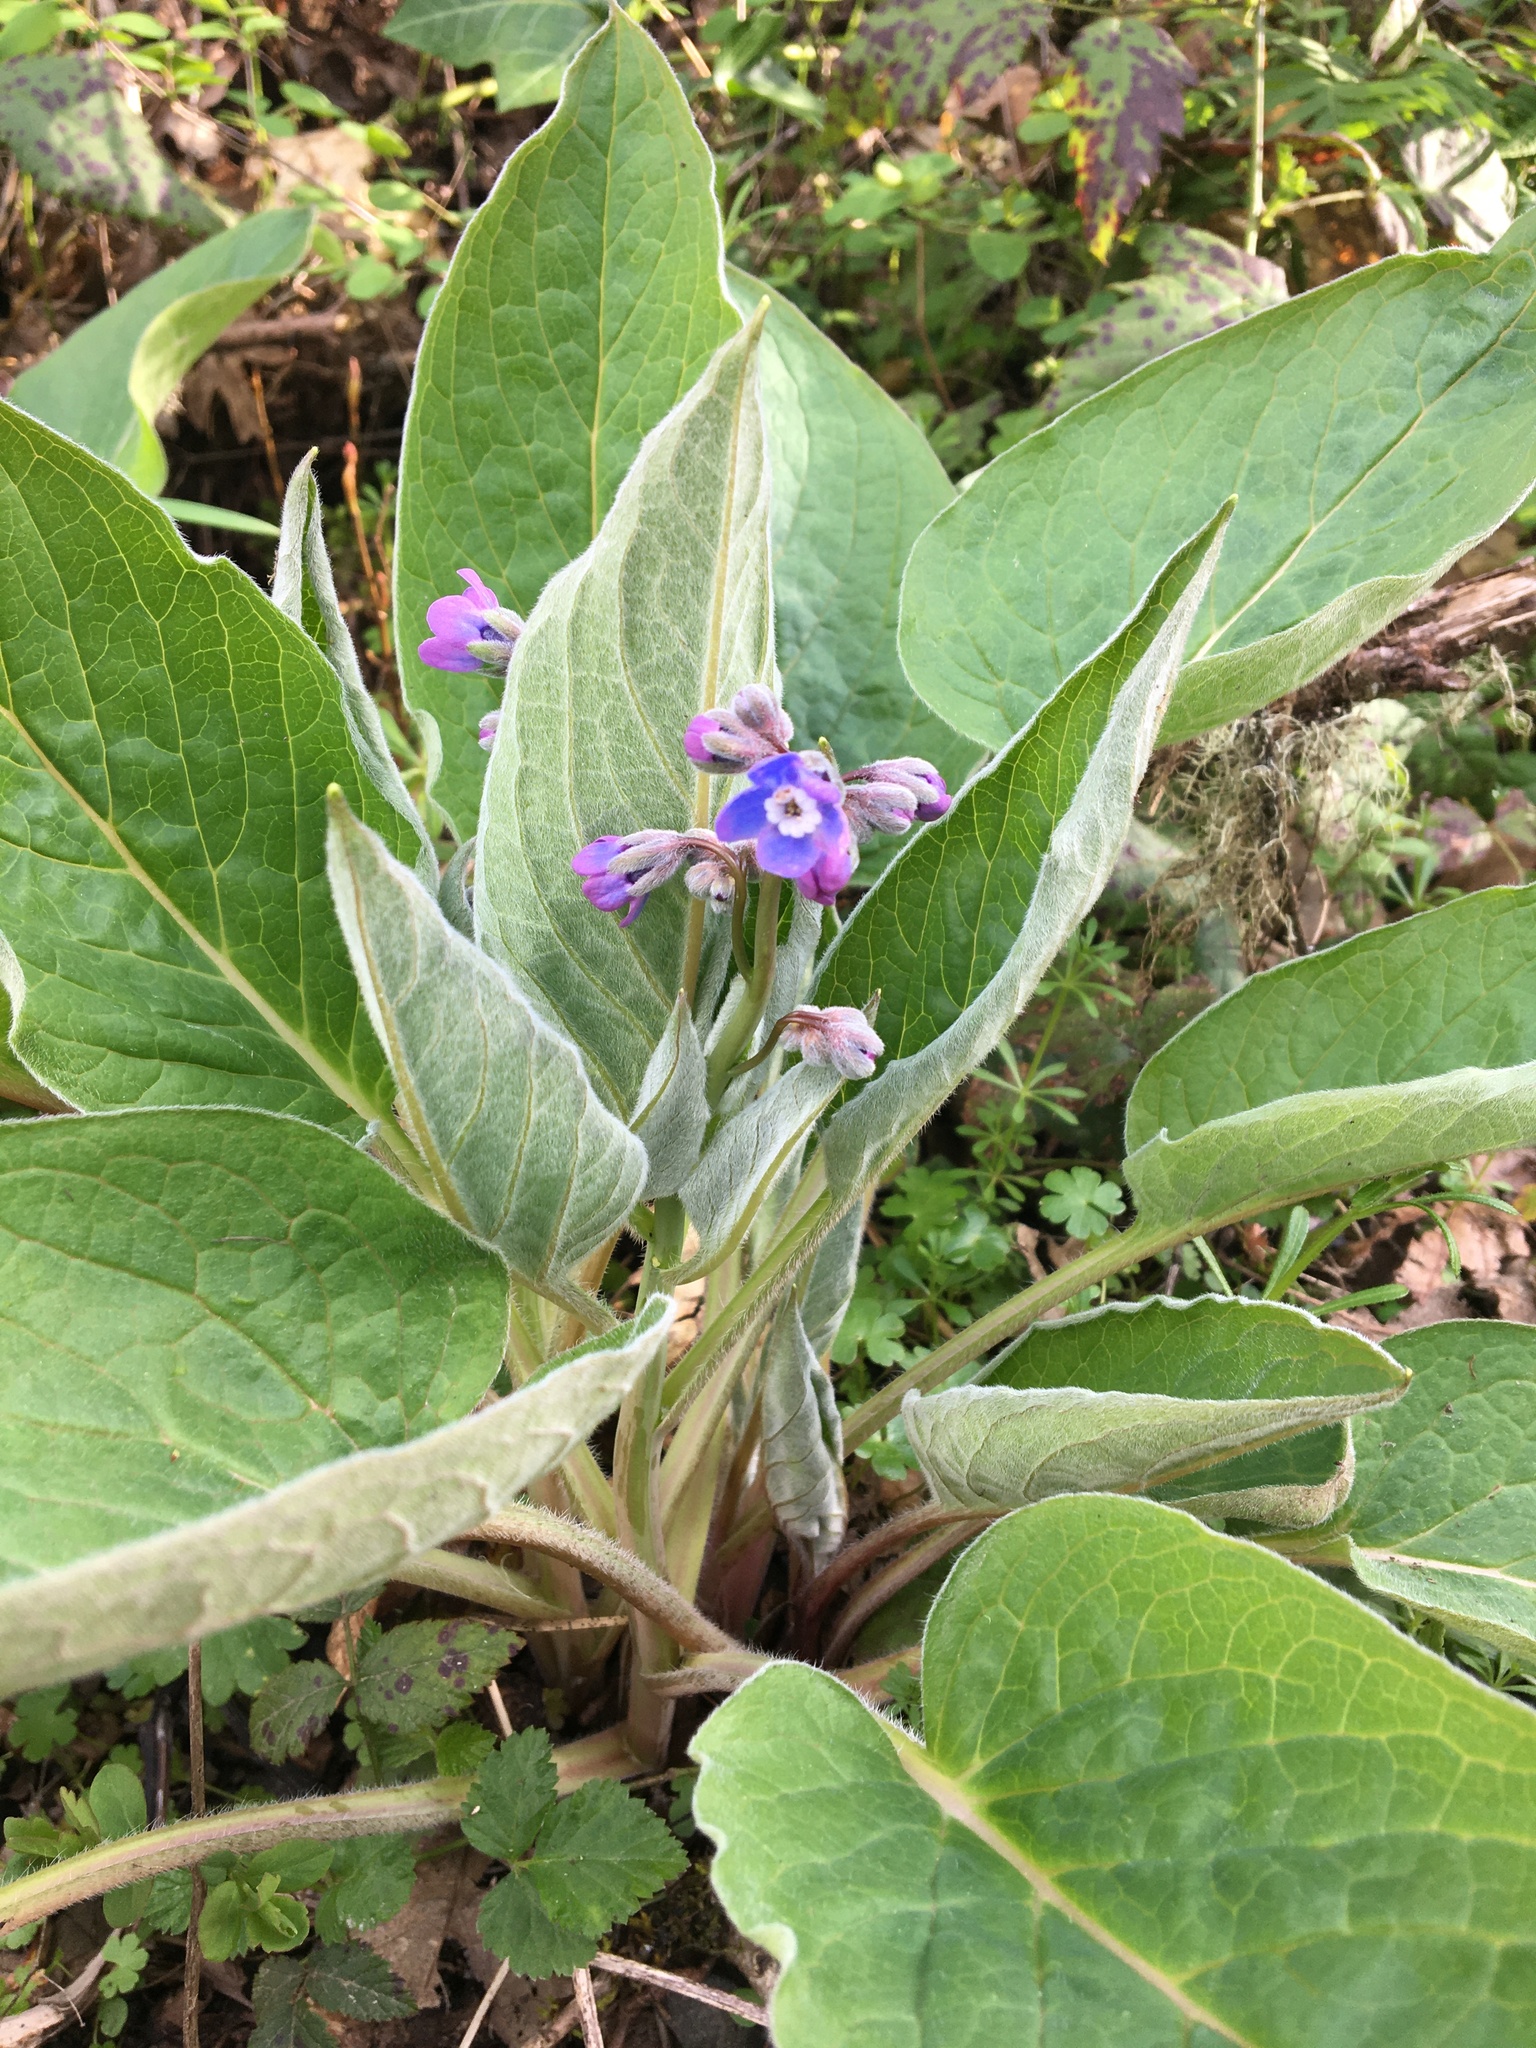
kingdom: Plantae
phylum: Tracheophyta
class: Magnoliopsida
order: Boraginales
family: Boraginaceae
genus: Adelinia
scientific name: Adelinia grande
